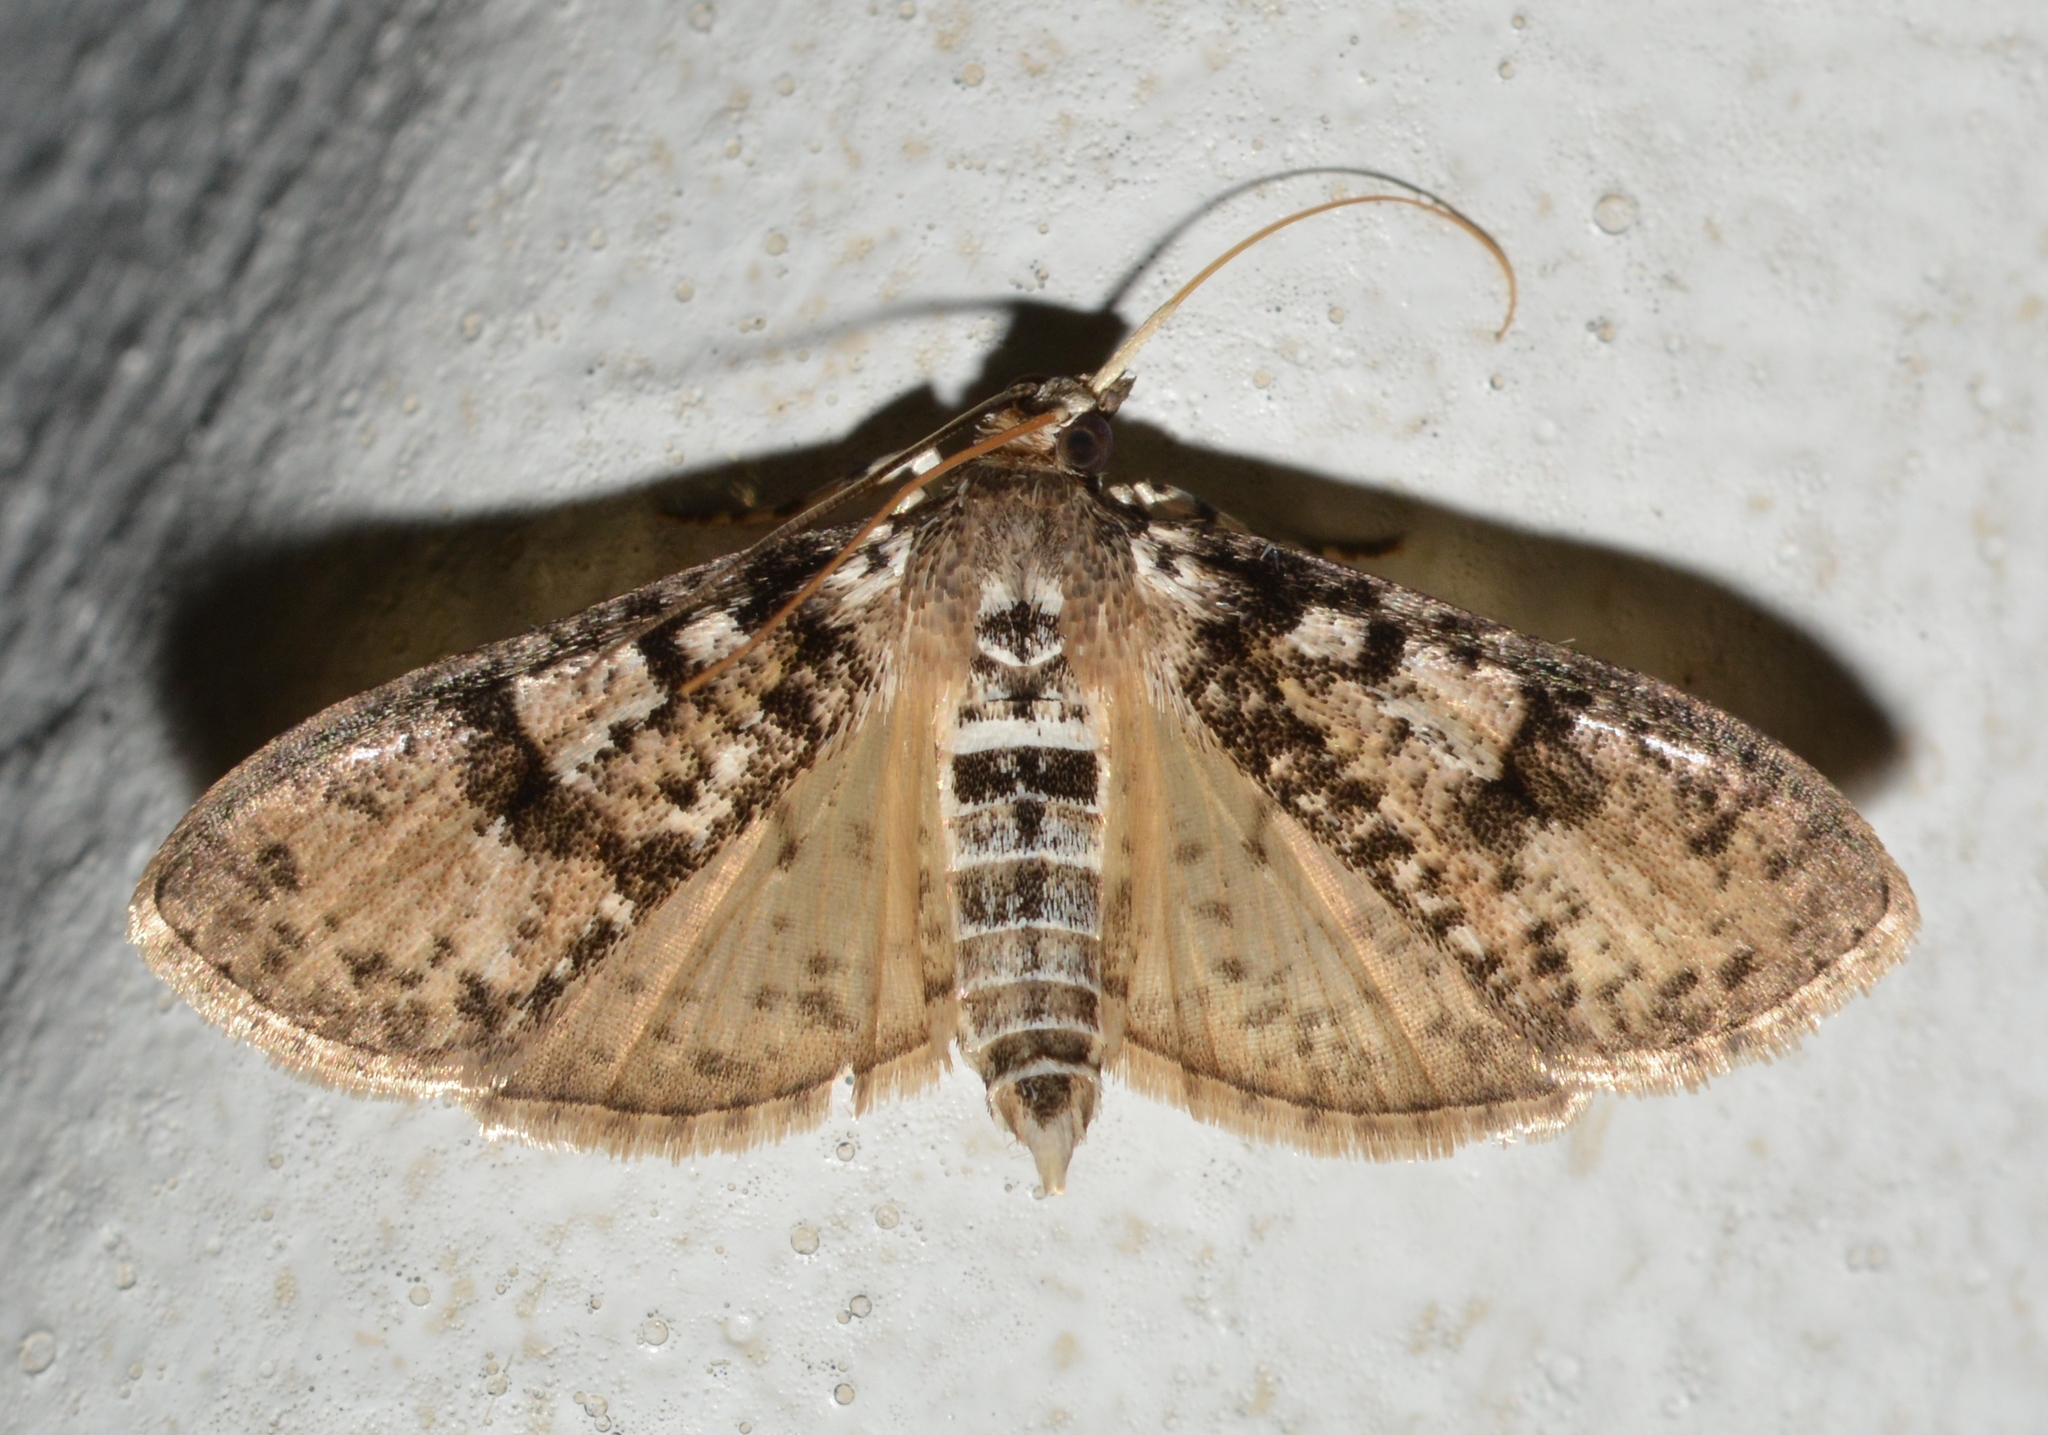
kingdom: Animalia
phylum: Arthropoda
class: Insecta
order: Lepidoptera
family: Crambidae
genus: Palpita
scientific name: Palpita magniferalis
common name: Splendid palpita moth
